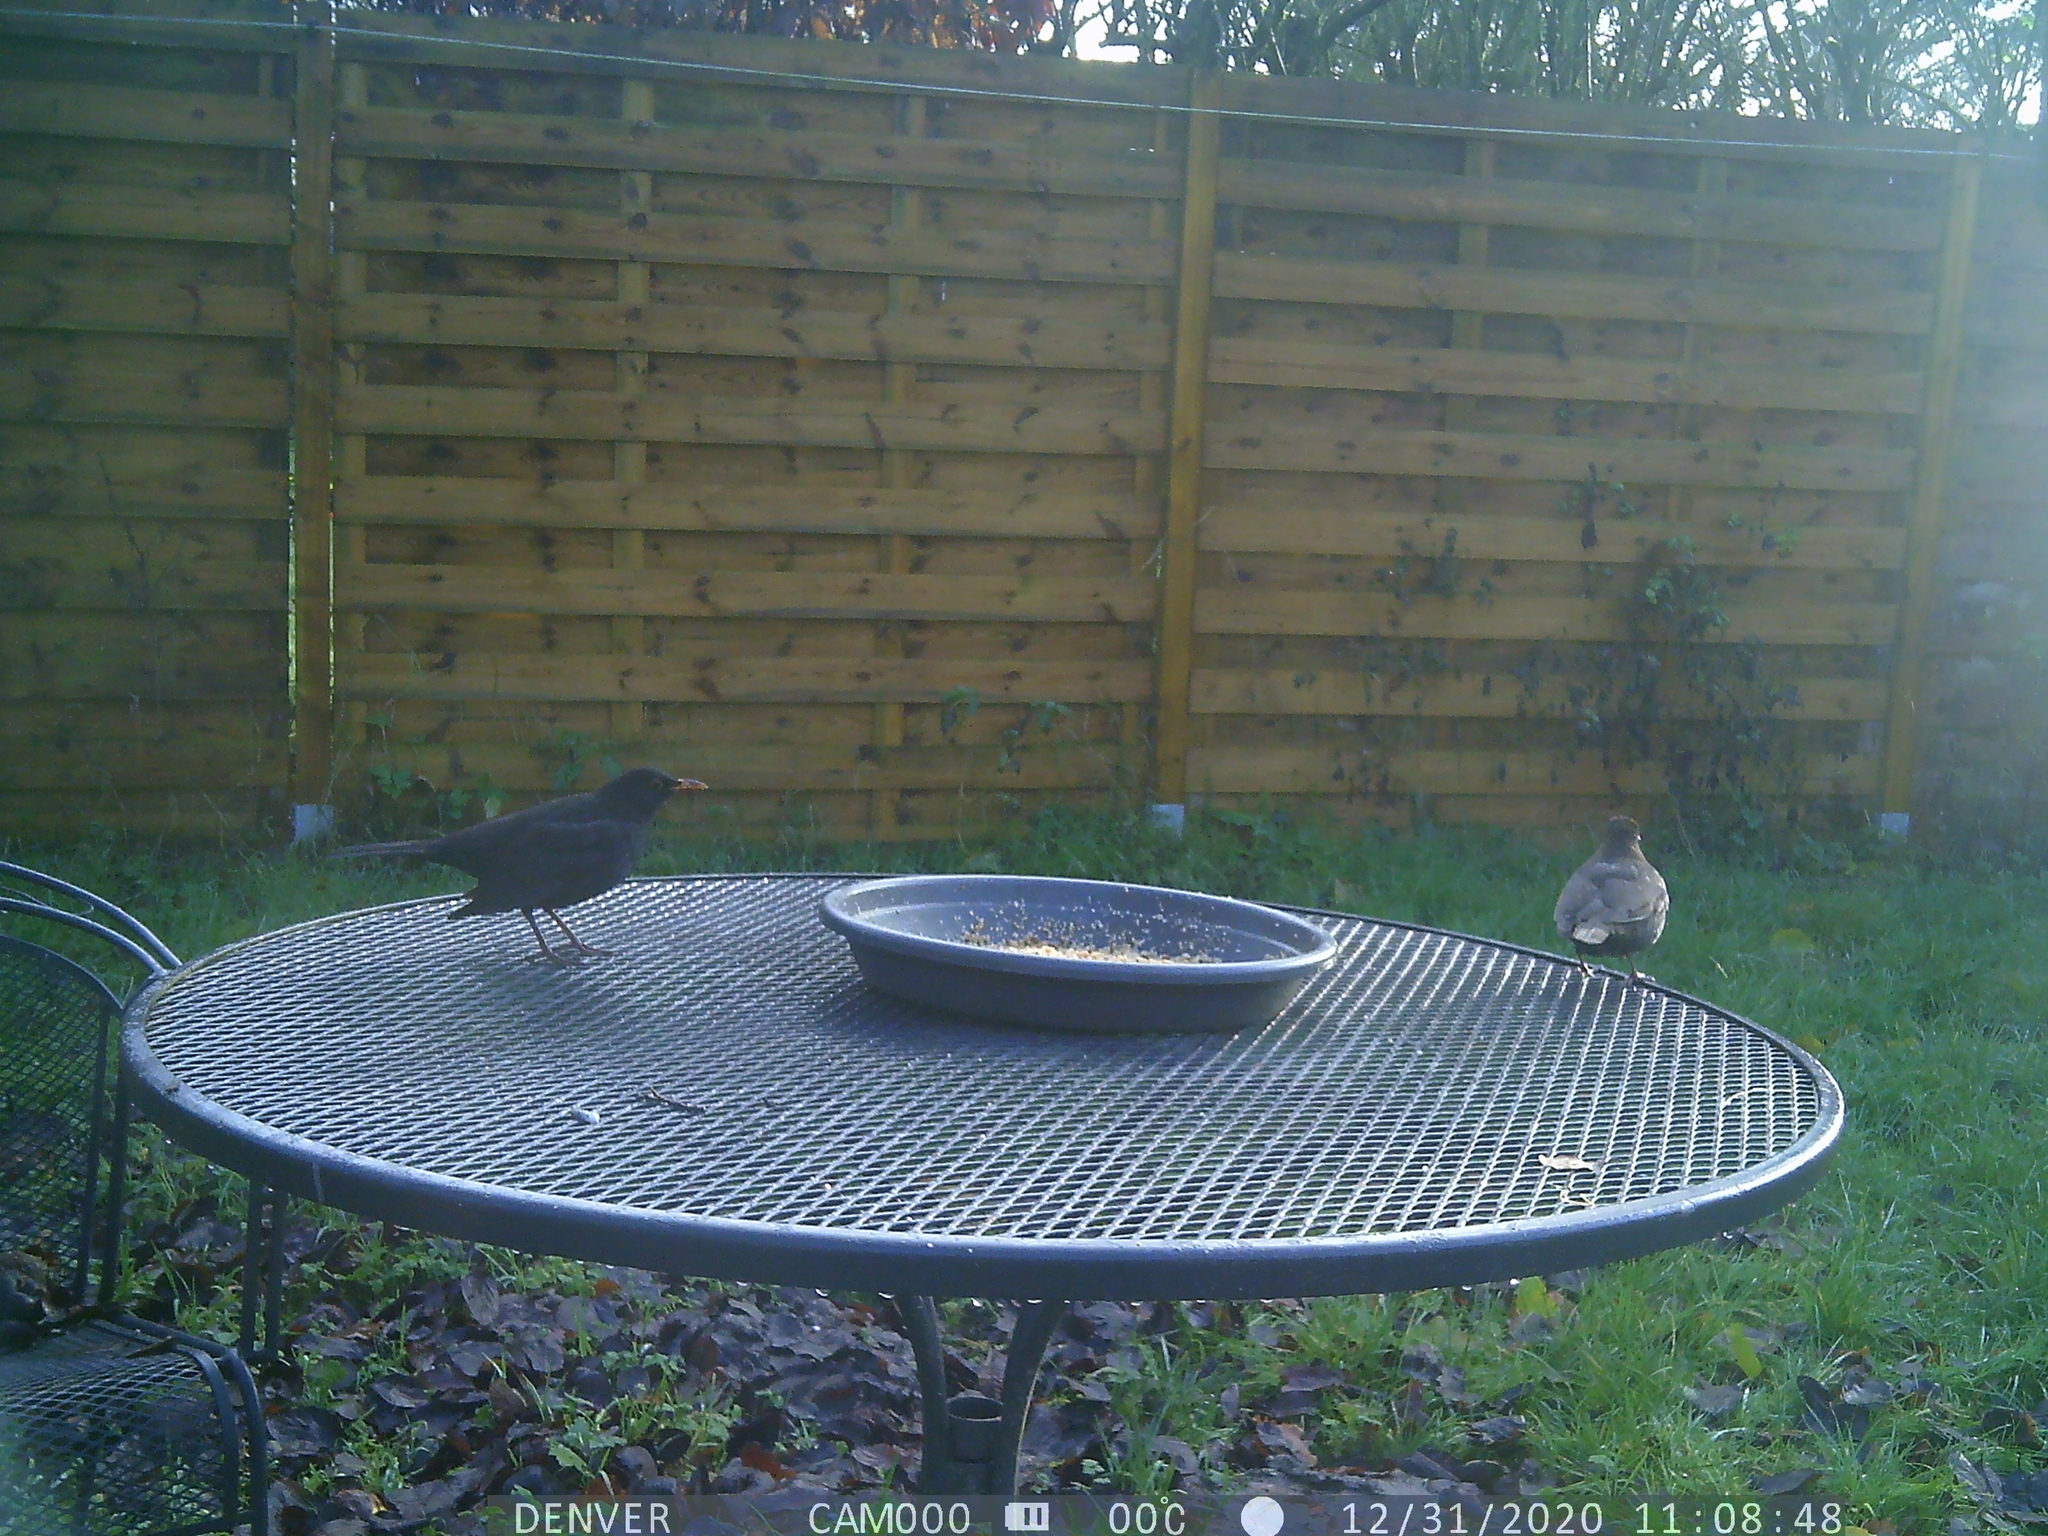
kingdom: Animalia
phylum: Chordata
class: Aves
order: Passeriformes
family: Turdidae
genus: Turdus
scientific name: Turdus merula
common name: Common blackbird
